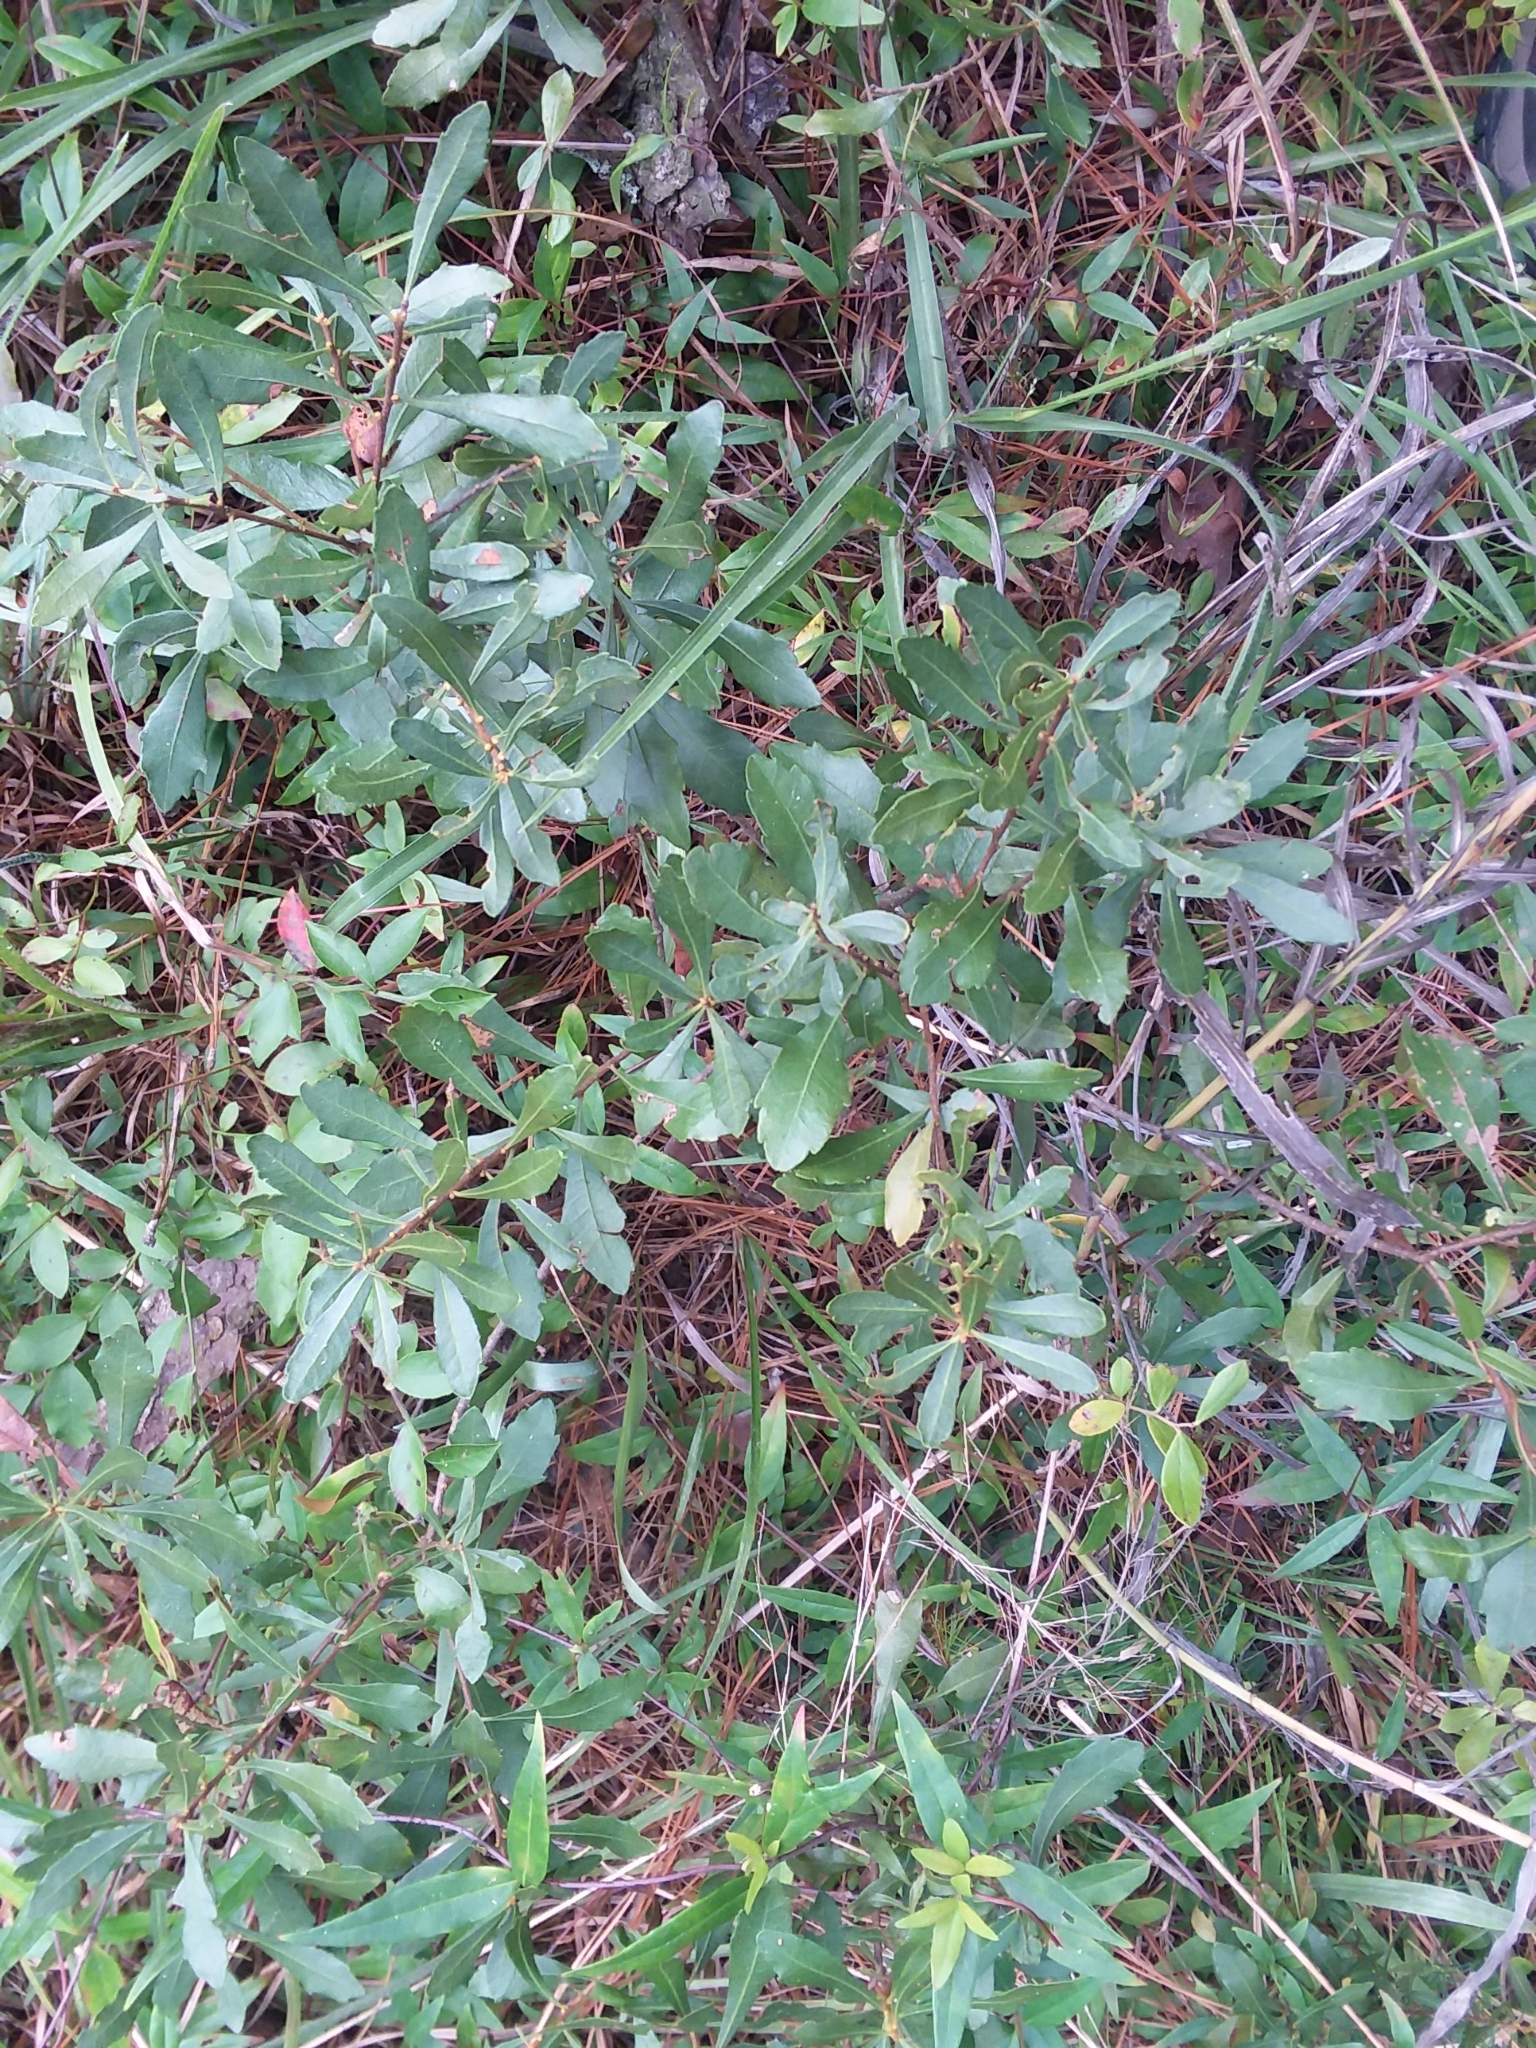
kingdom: Plantae
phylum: Tracheophyta
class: Magnoliopsida
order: Fagales
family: Myricaceae
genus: Morella
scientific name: Morella cerifera
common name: Wax myrtle
